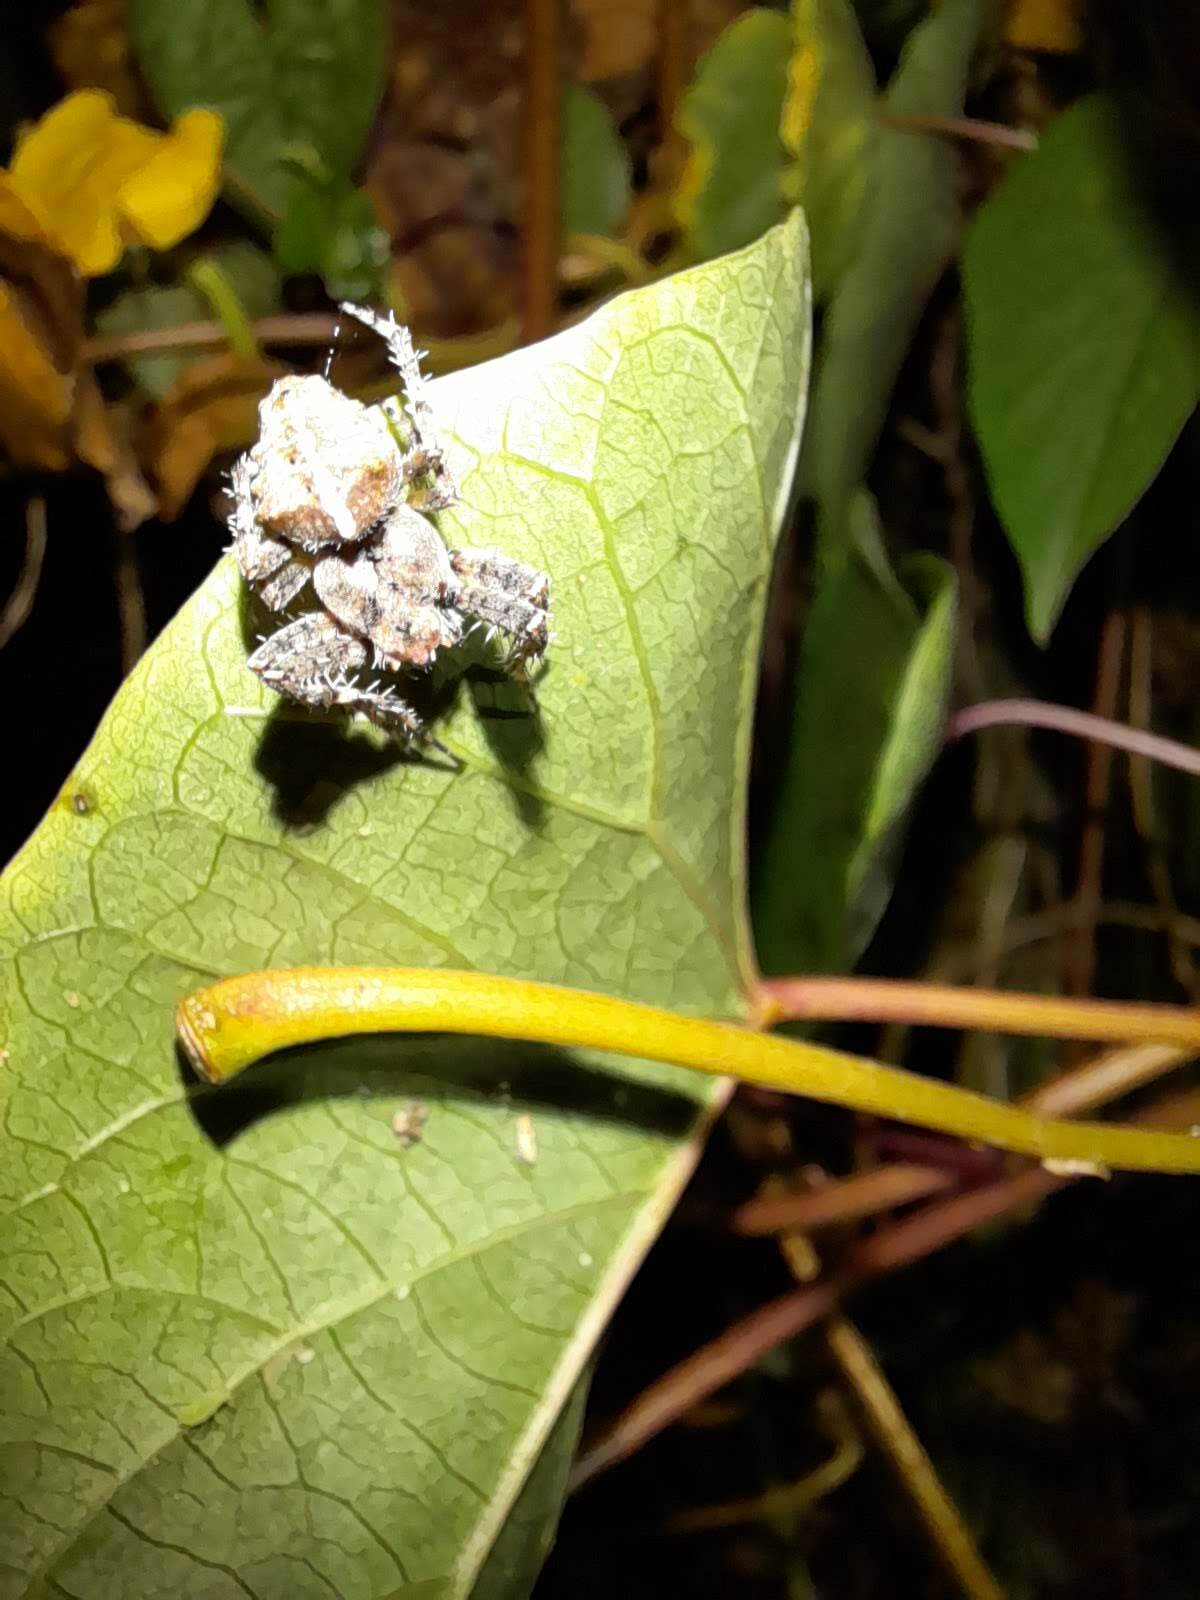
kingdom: Animalia
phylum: Arthropoda
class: Arachnida
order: Araneae
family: Araneidae
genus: Parawixia
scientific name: Parawixia audax
